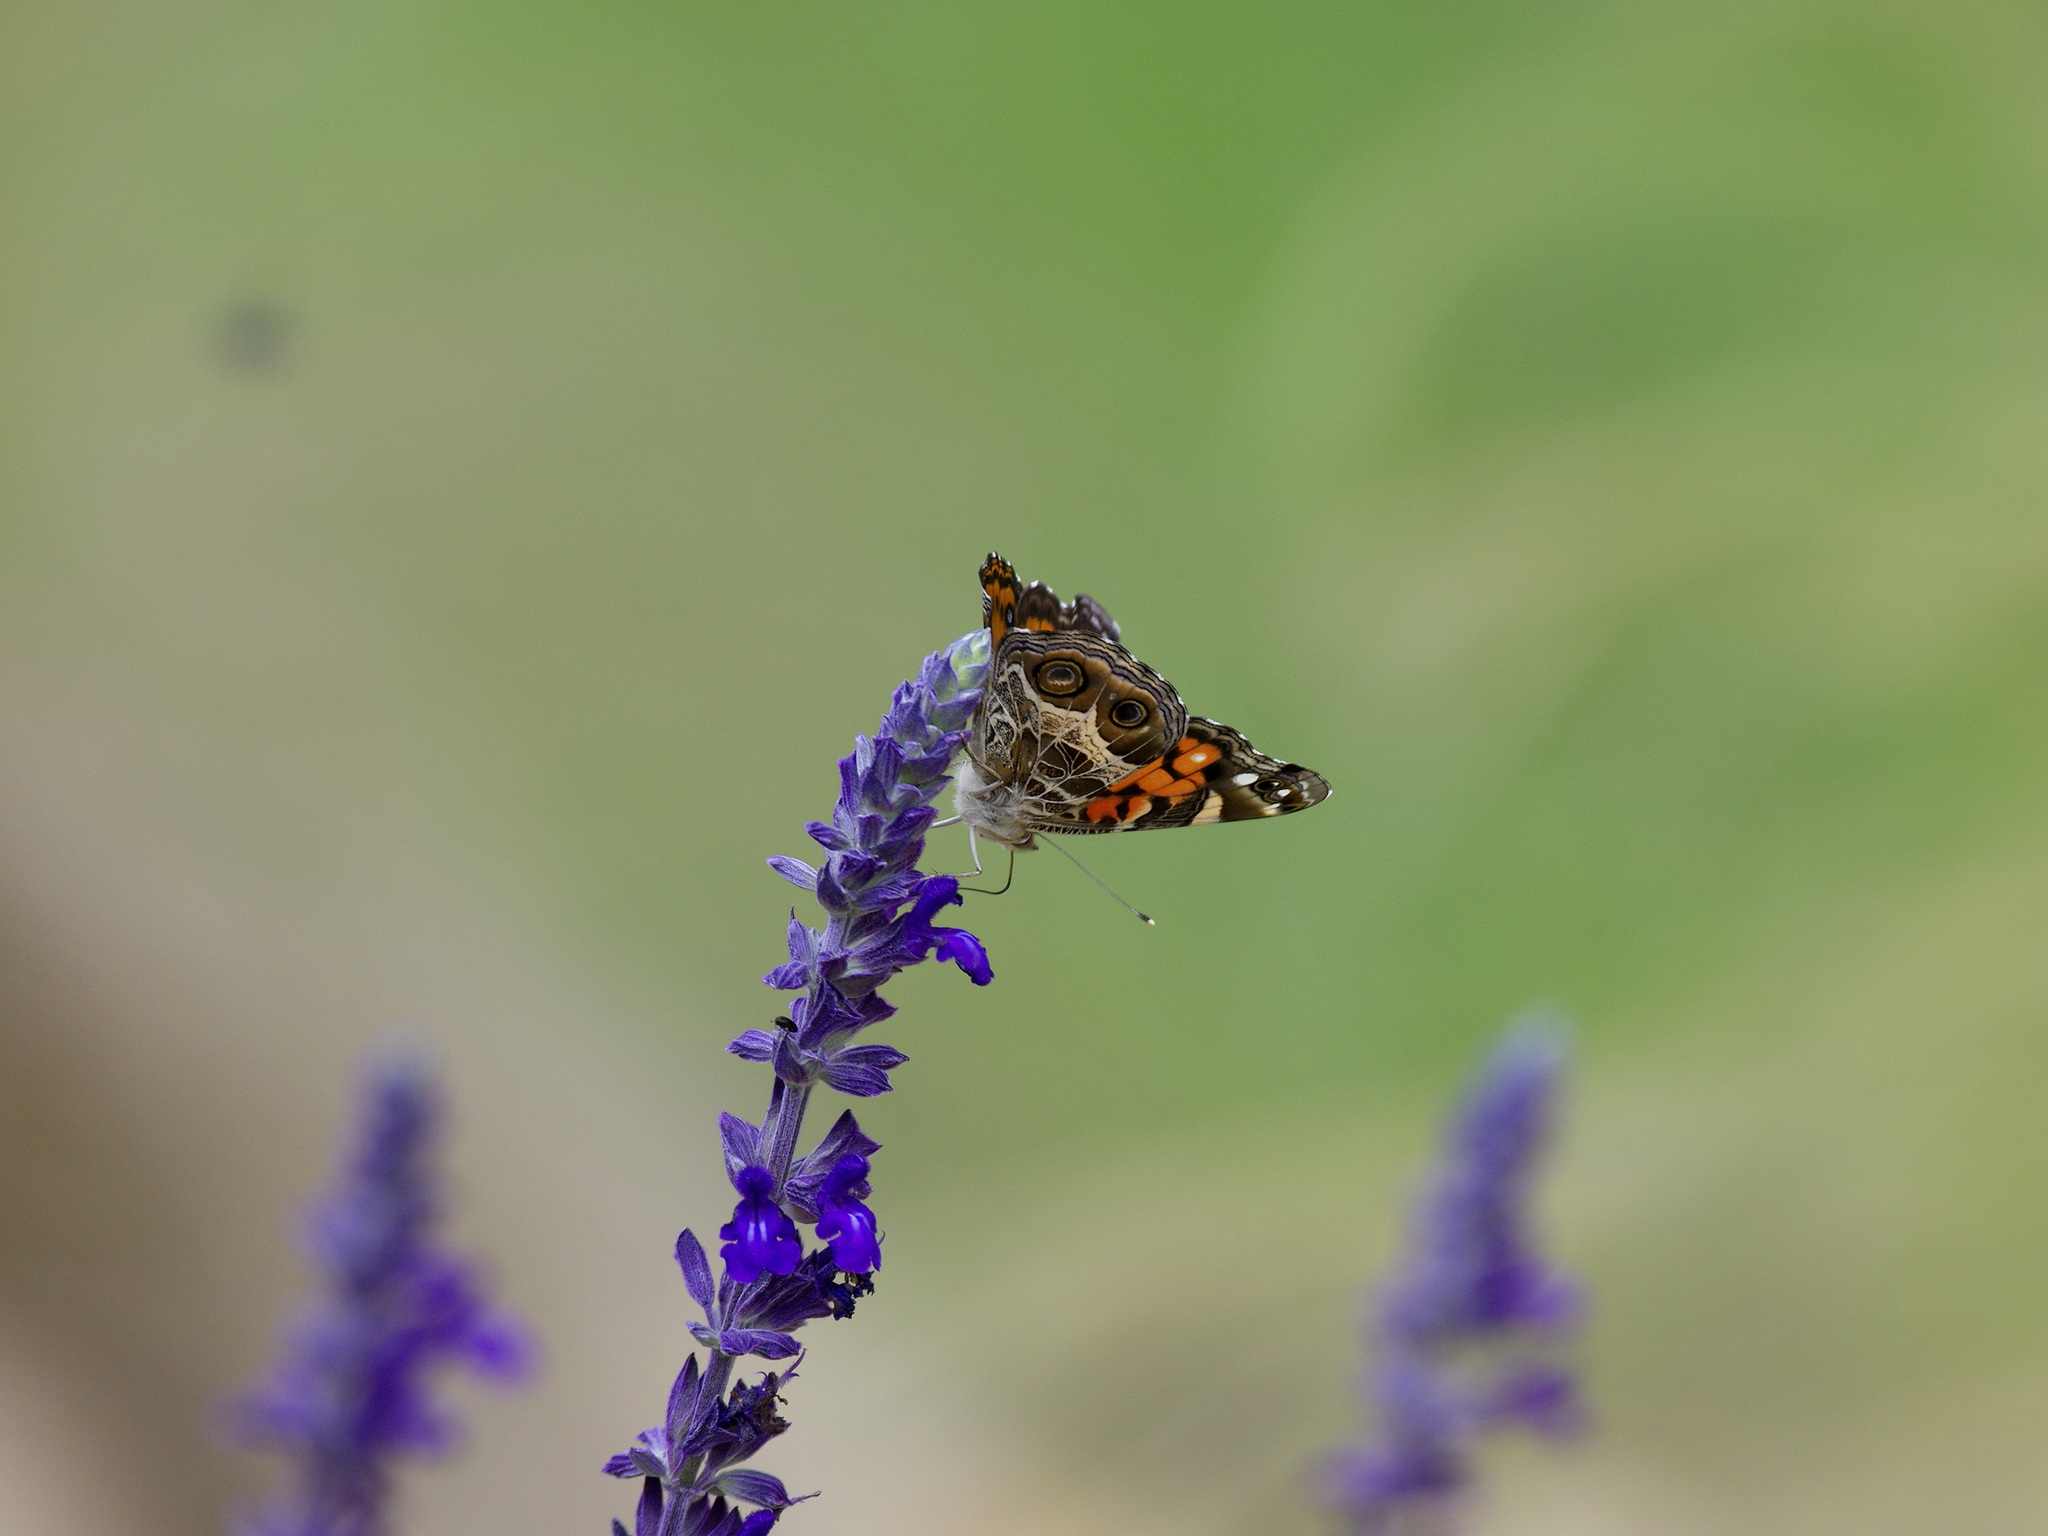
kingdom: Animalia
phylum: Arthropoda
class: Insecta
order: Lepidoptera
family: Nymphalidae
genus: Vanessa
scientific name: Vanessa virginiensis
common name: American lady
